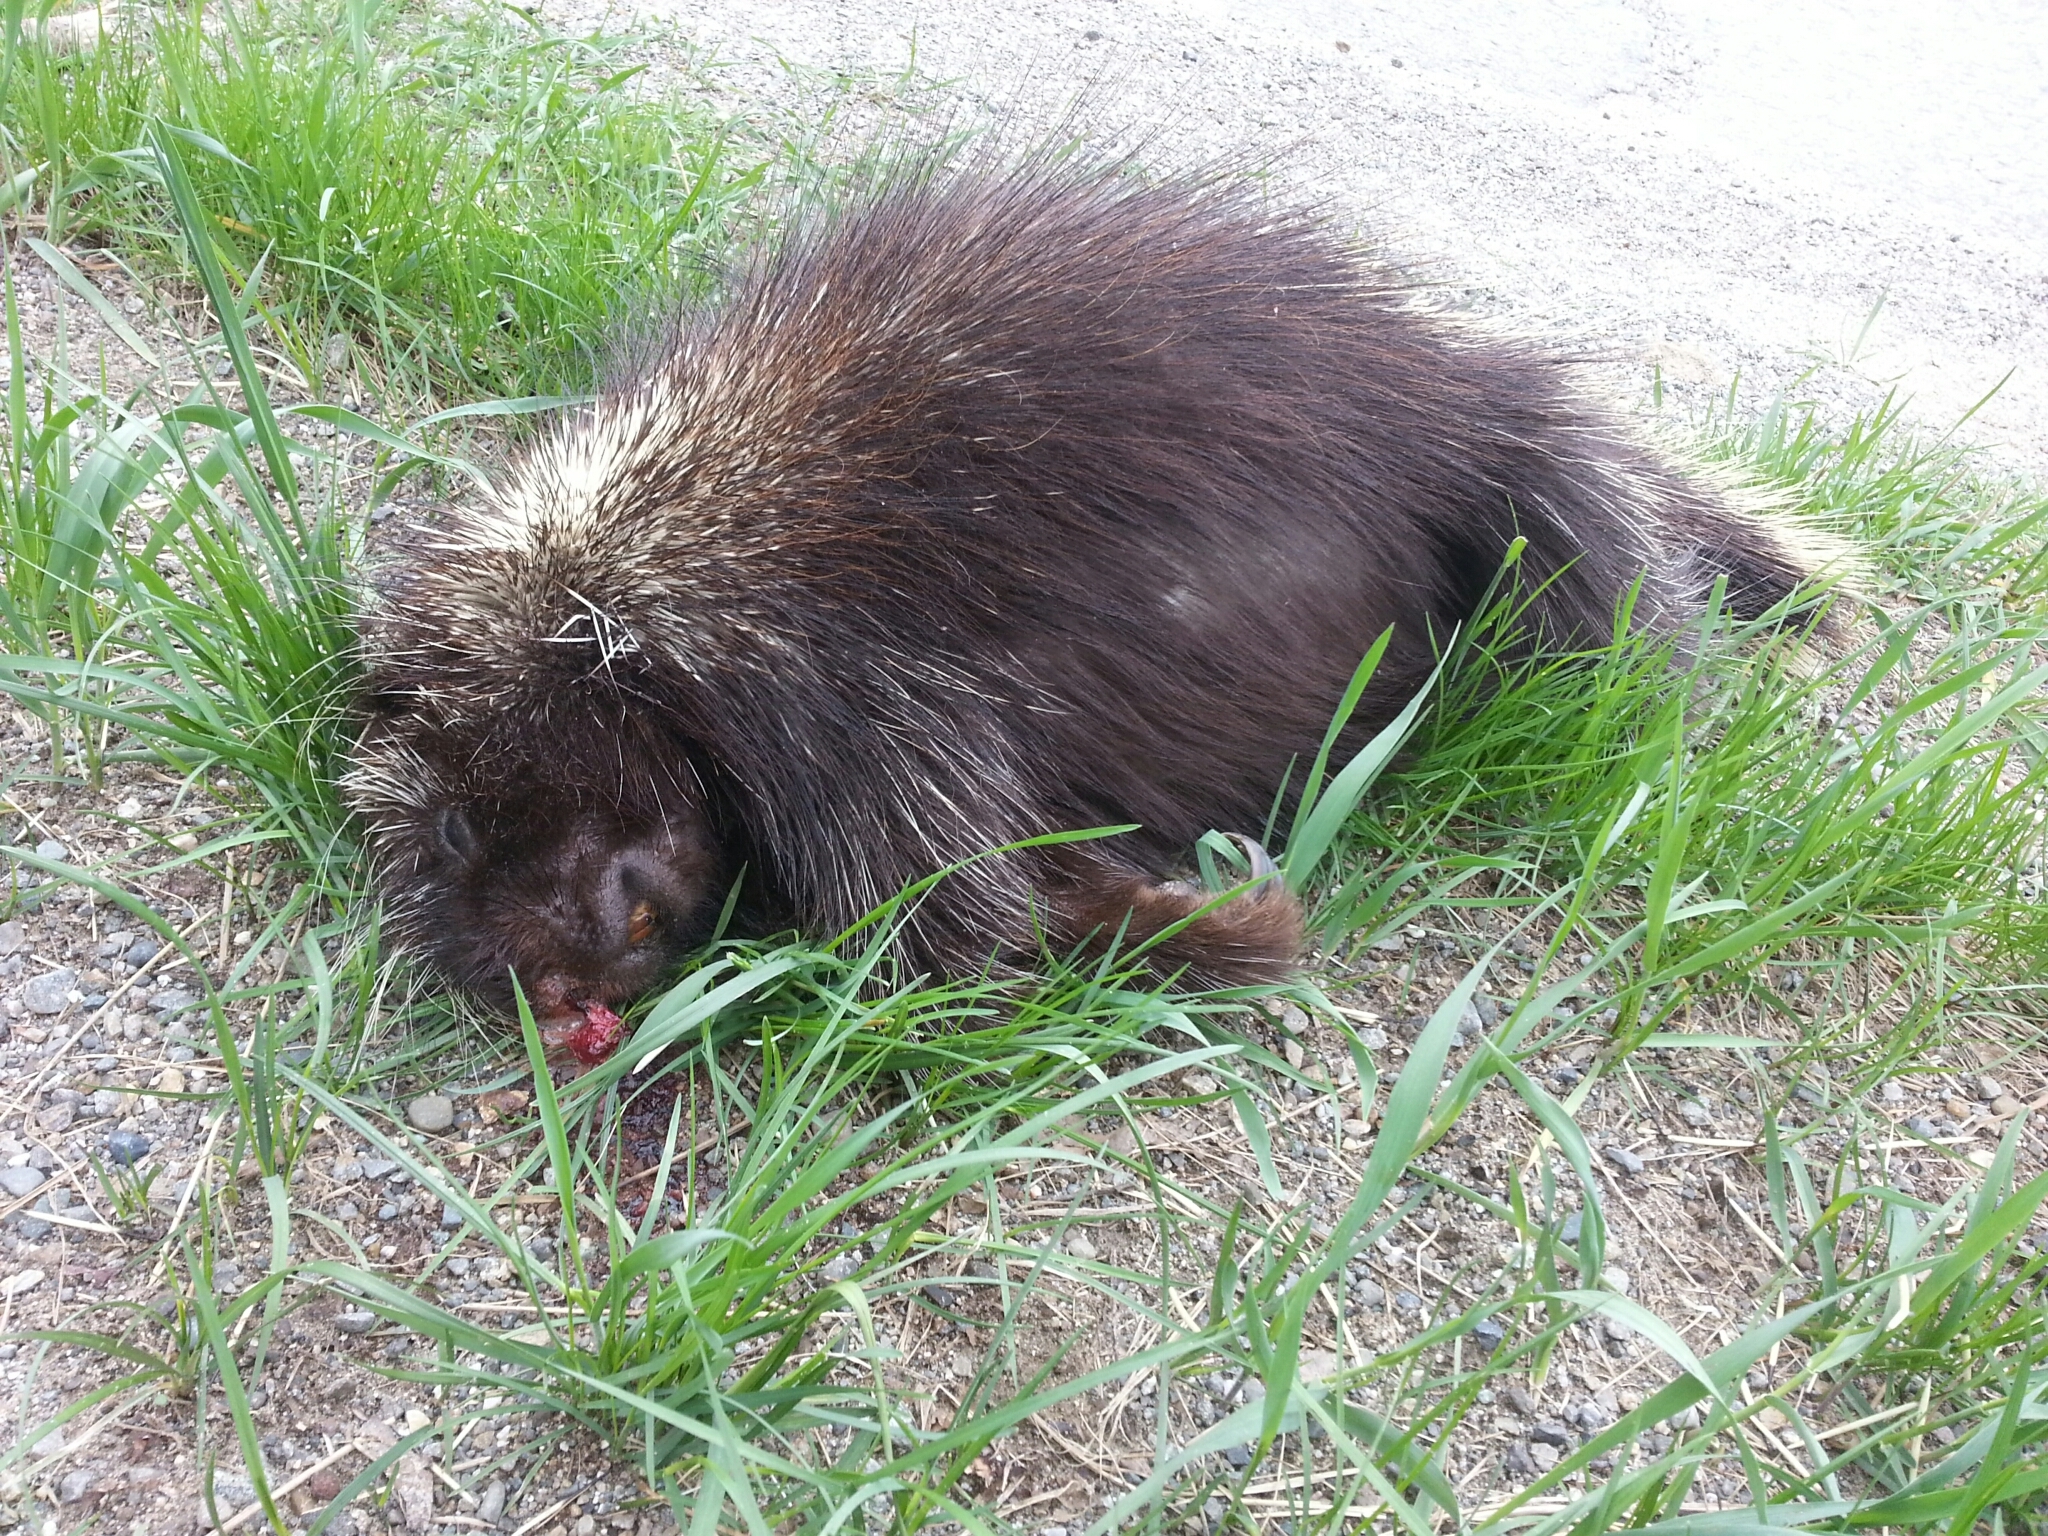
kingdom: Animalia
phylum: Chordata
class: Mammalia
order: Rodentia
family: Erethizontidae
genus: Erethizon
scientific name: Erethizon dorsatus
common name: North american porcupine
